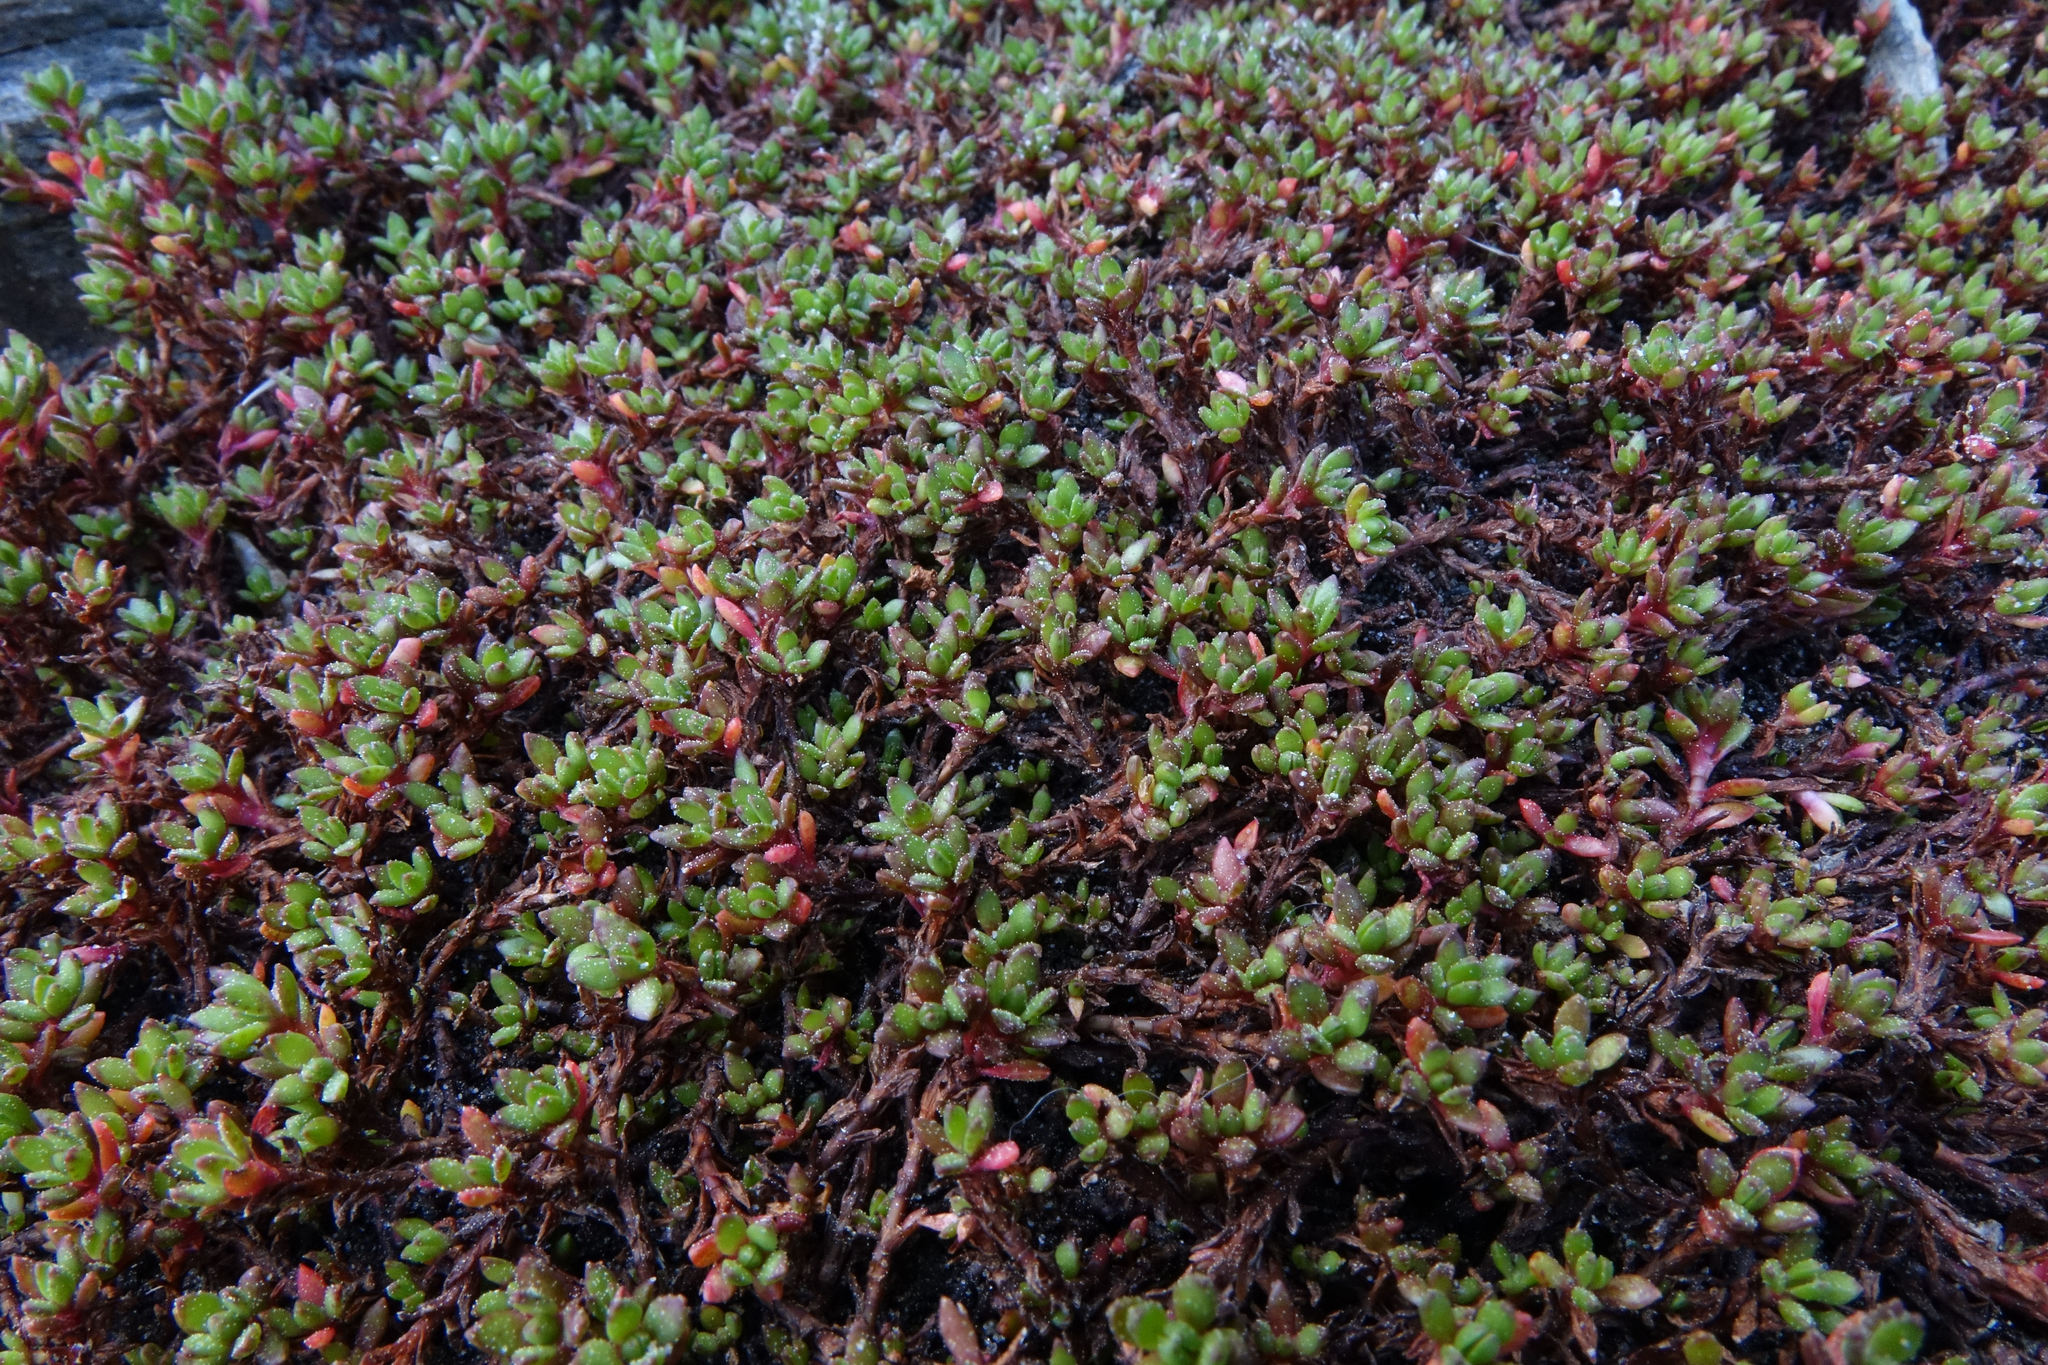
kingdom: Plantae
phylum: Tracheophyta
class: Magnoliopsida
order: Saxifragales
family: Crassulaceae
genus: Crassula
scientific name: Crassula moschata
